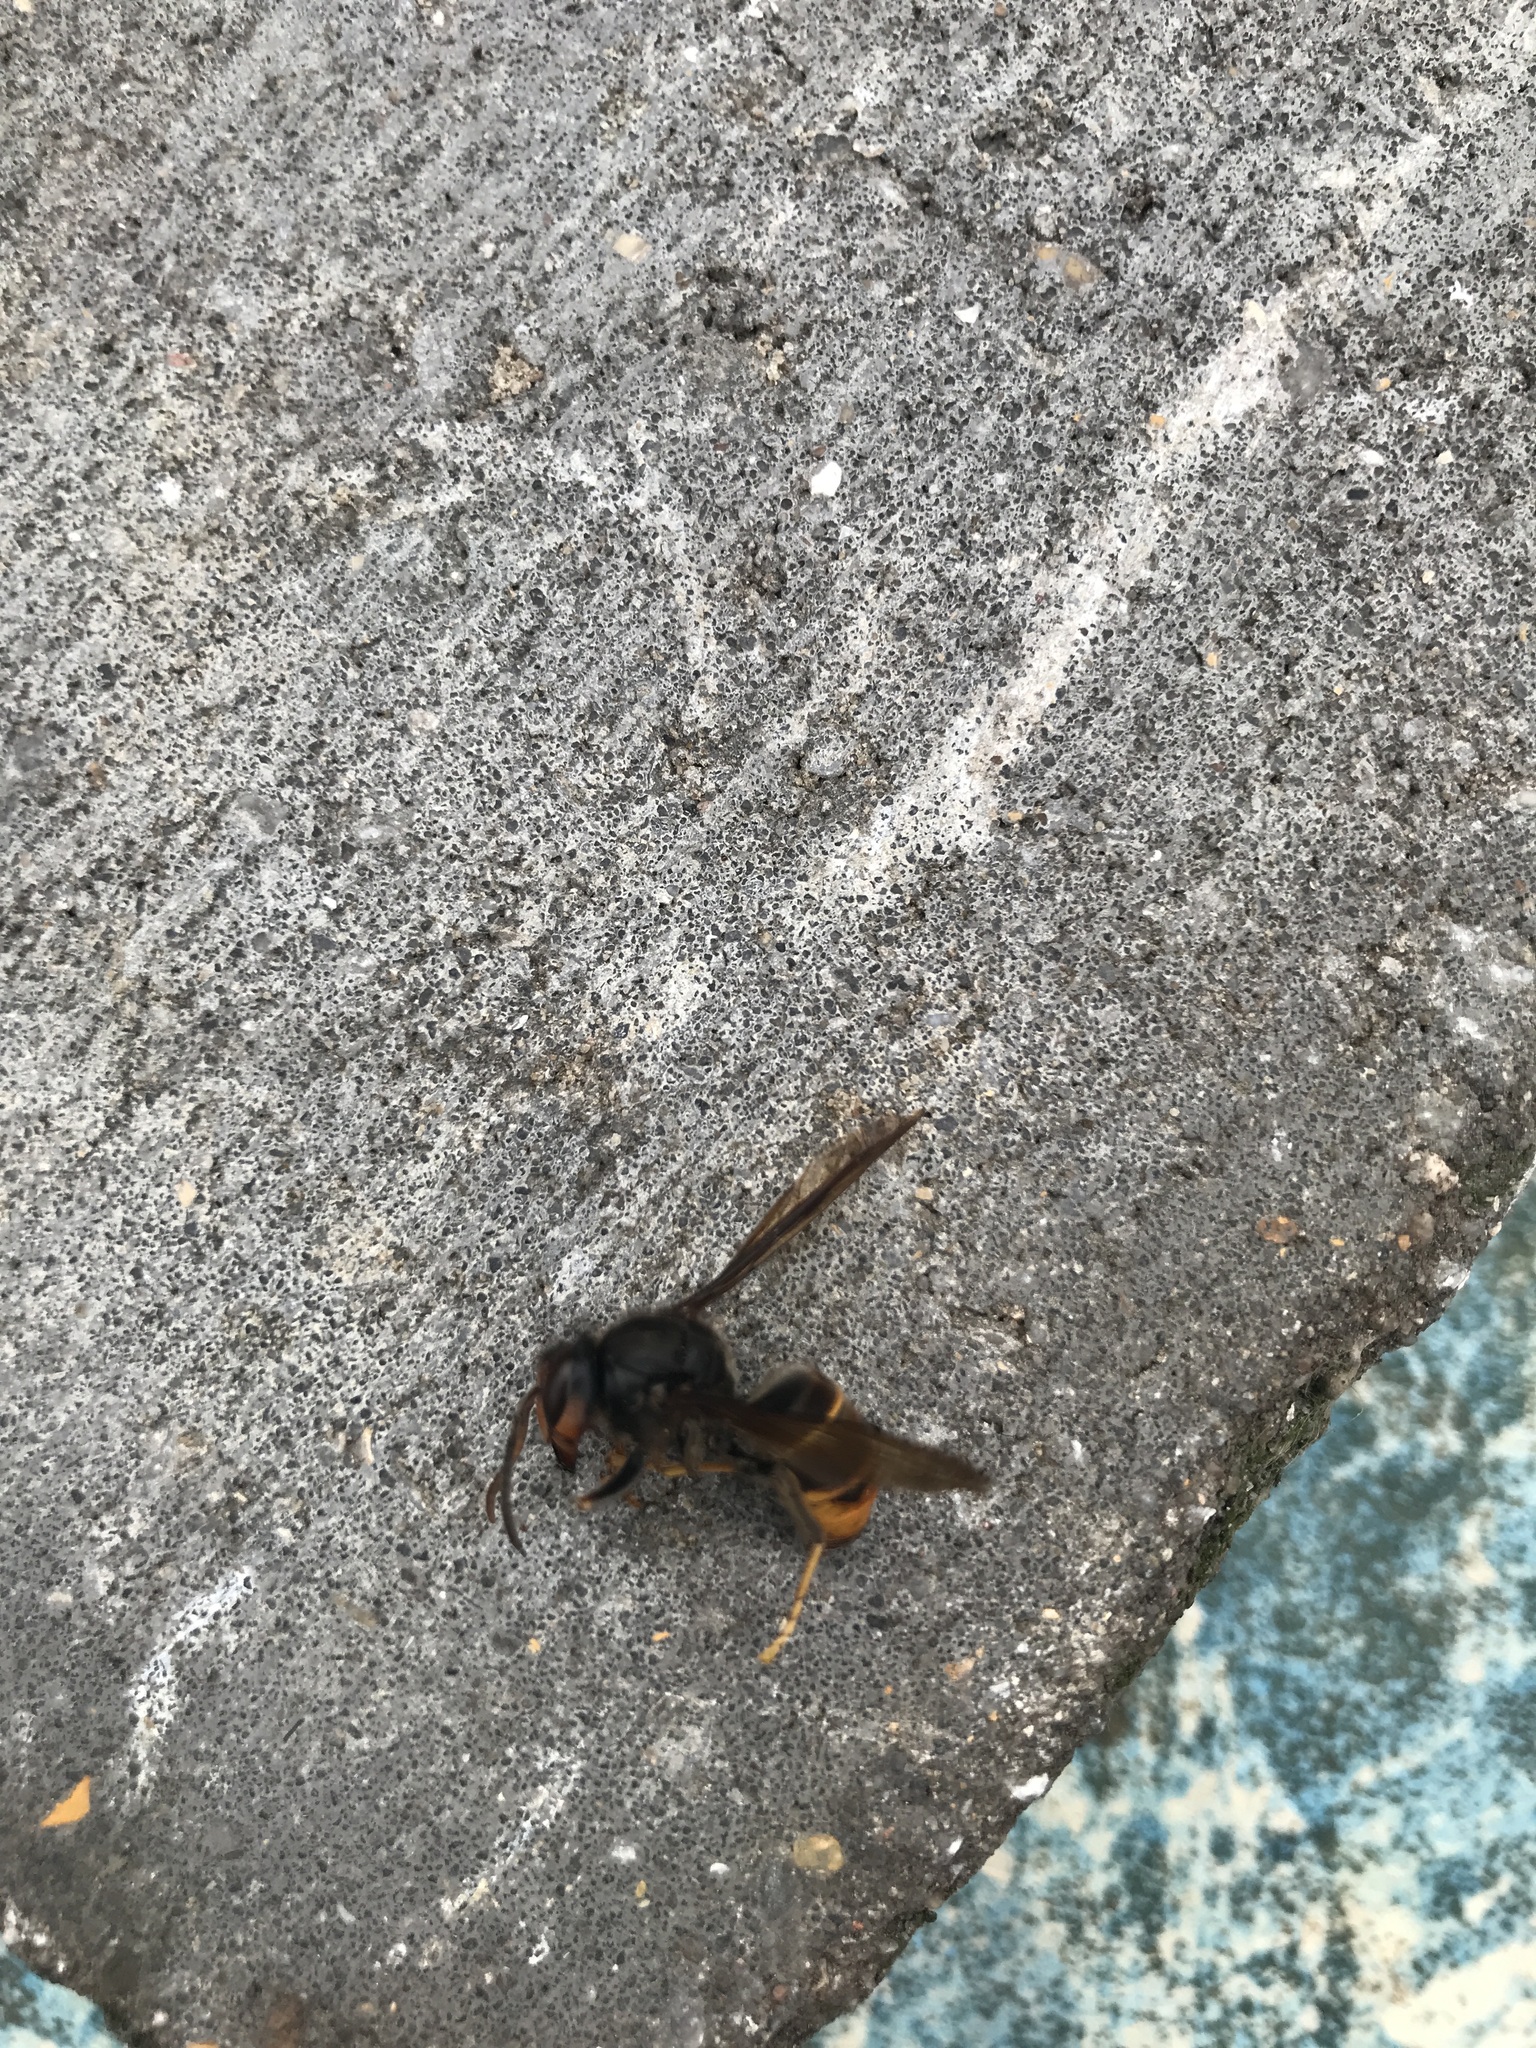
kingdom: Animalia
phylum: Arthropoda
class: Insecta
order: Hymenoptera
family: Vespidae
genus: Vespa
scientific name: Vespa velutina
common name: Asian hornet
